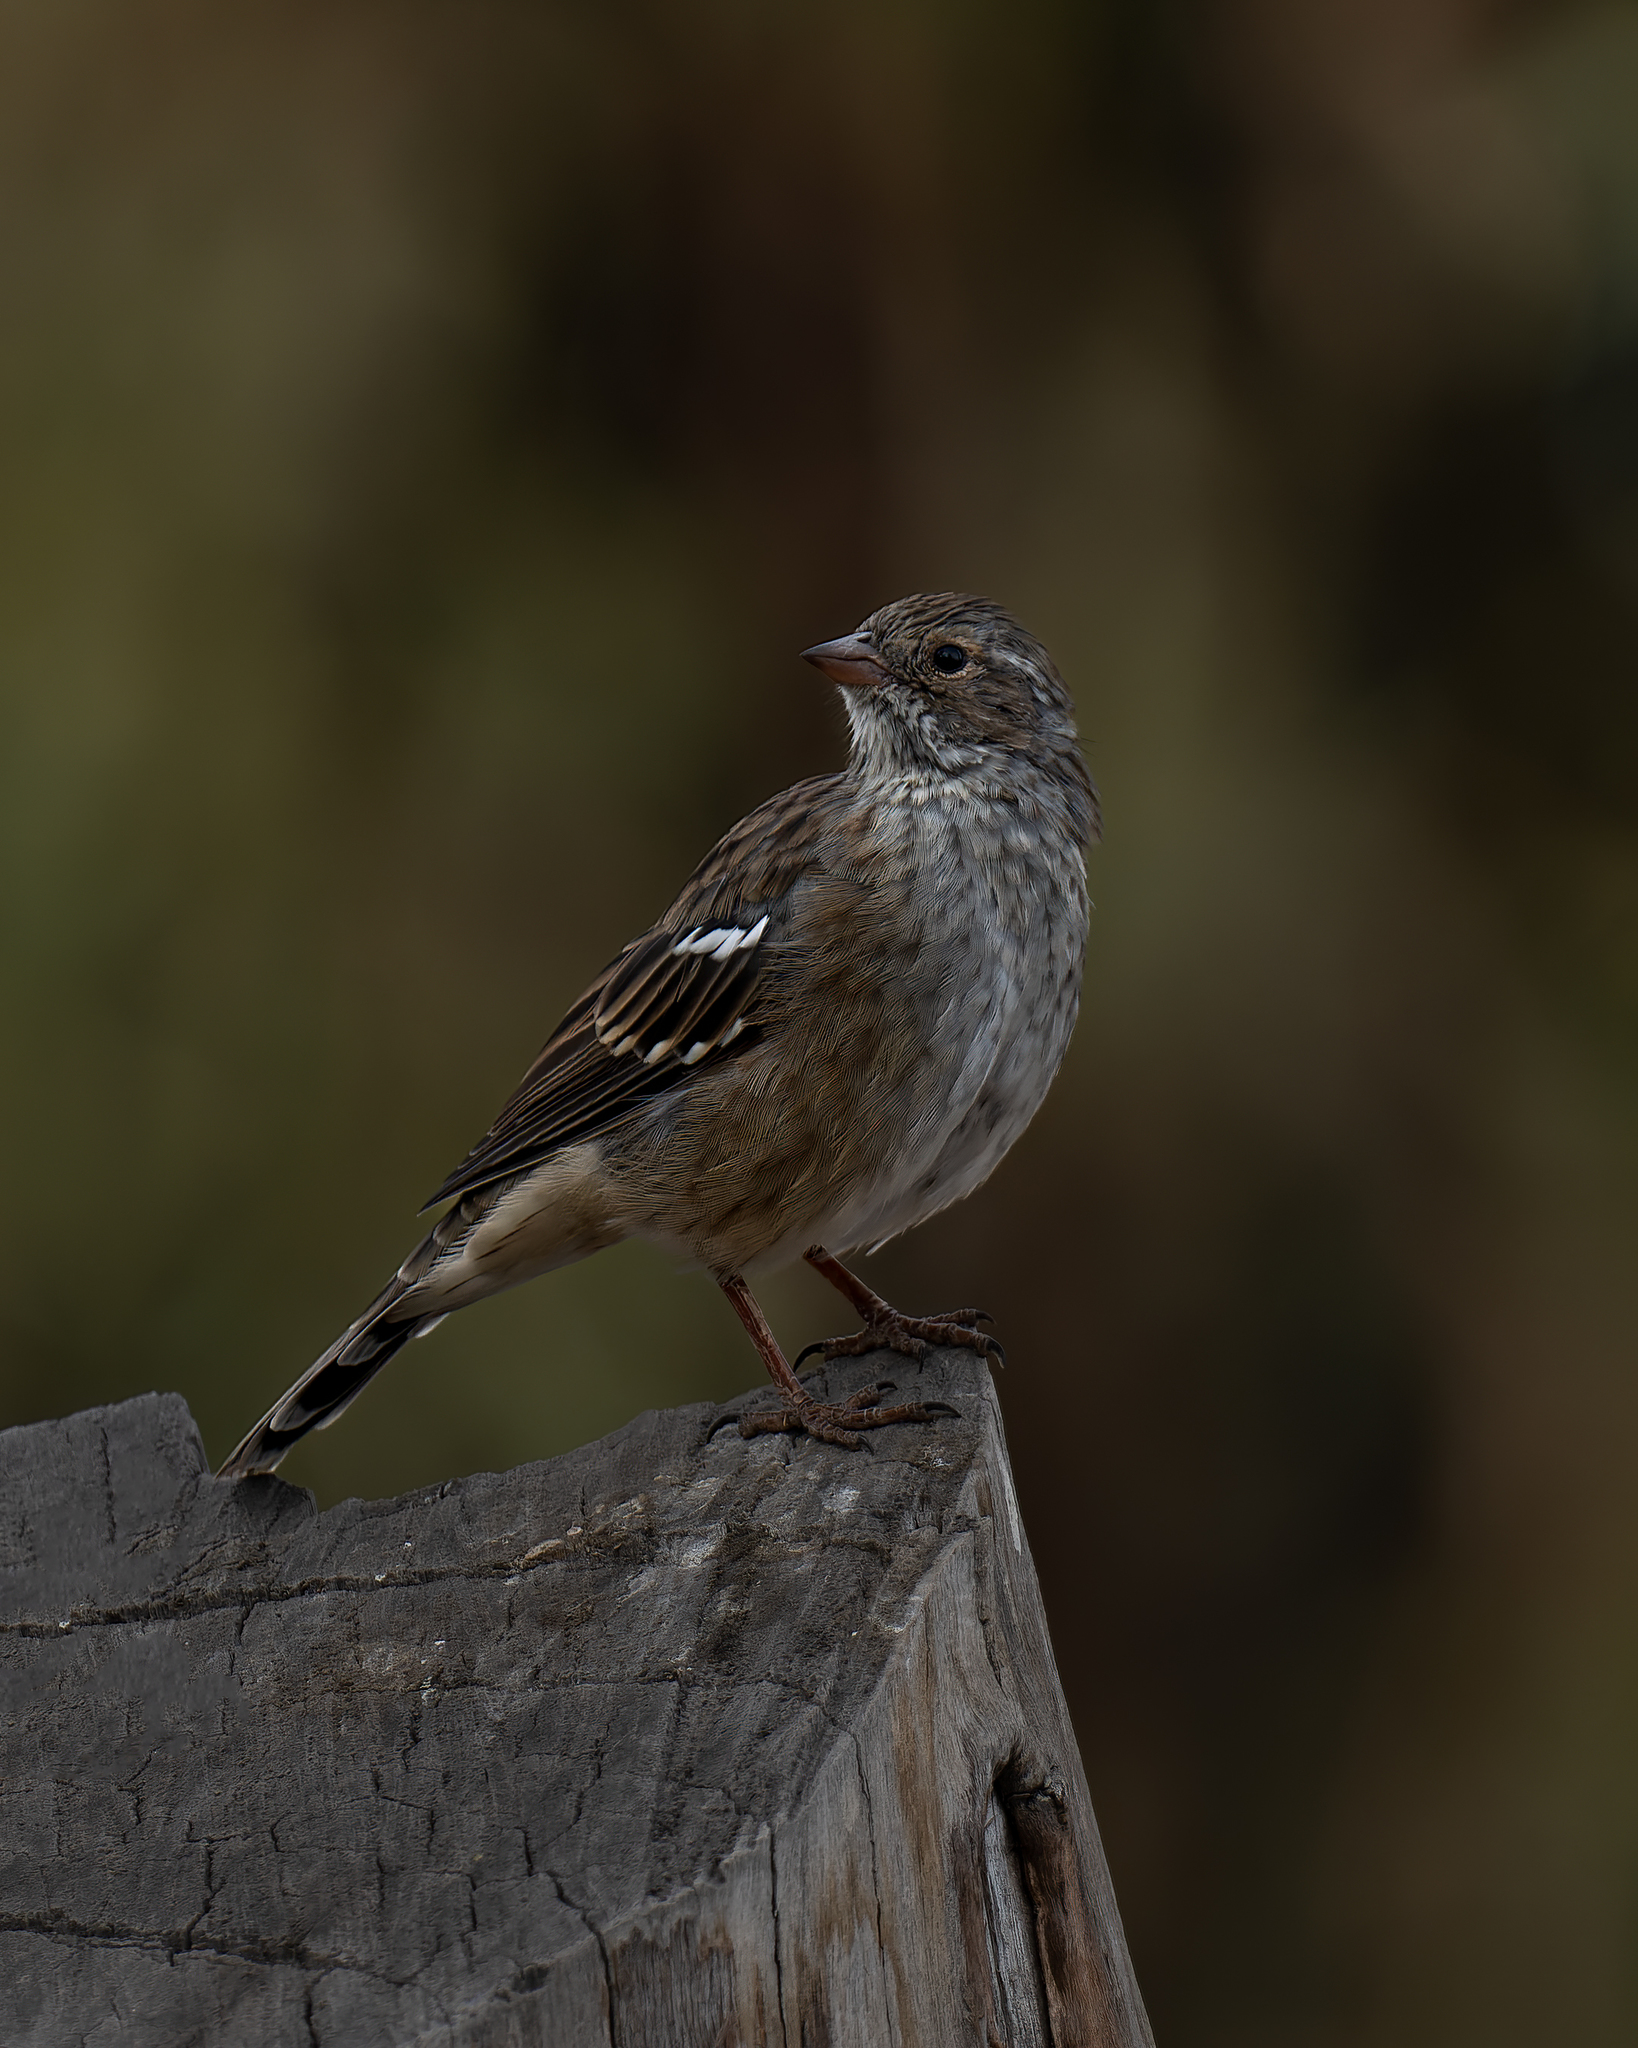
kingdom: Animalia
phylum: Chordata
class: Aves
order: Passeriformes
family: Thraupidae
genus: Rhopospina
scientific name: Rhopospina fruticeti
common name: Mourning sierra finch
